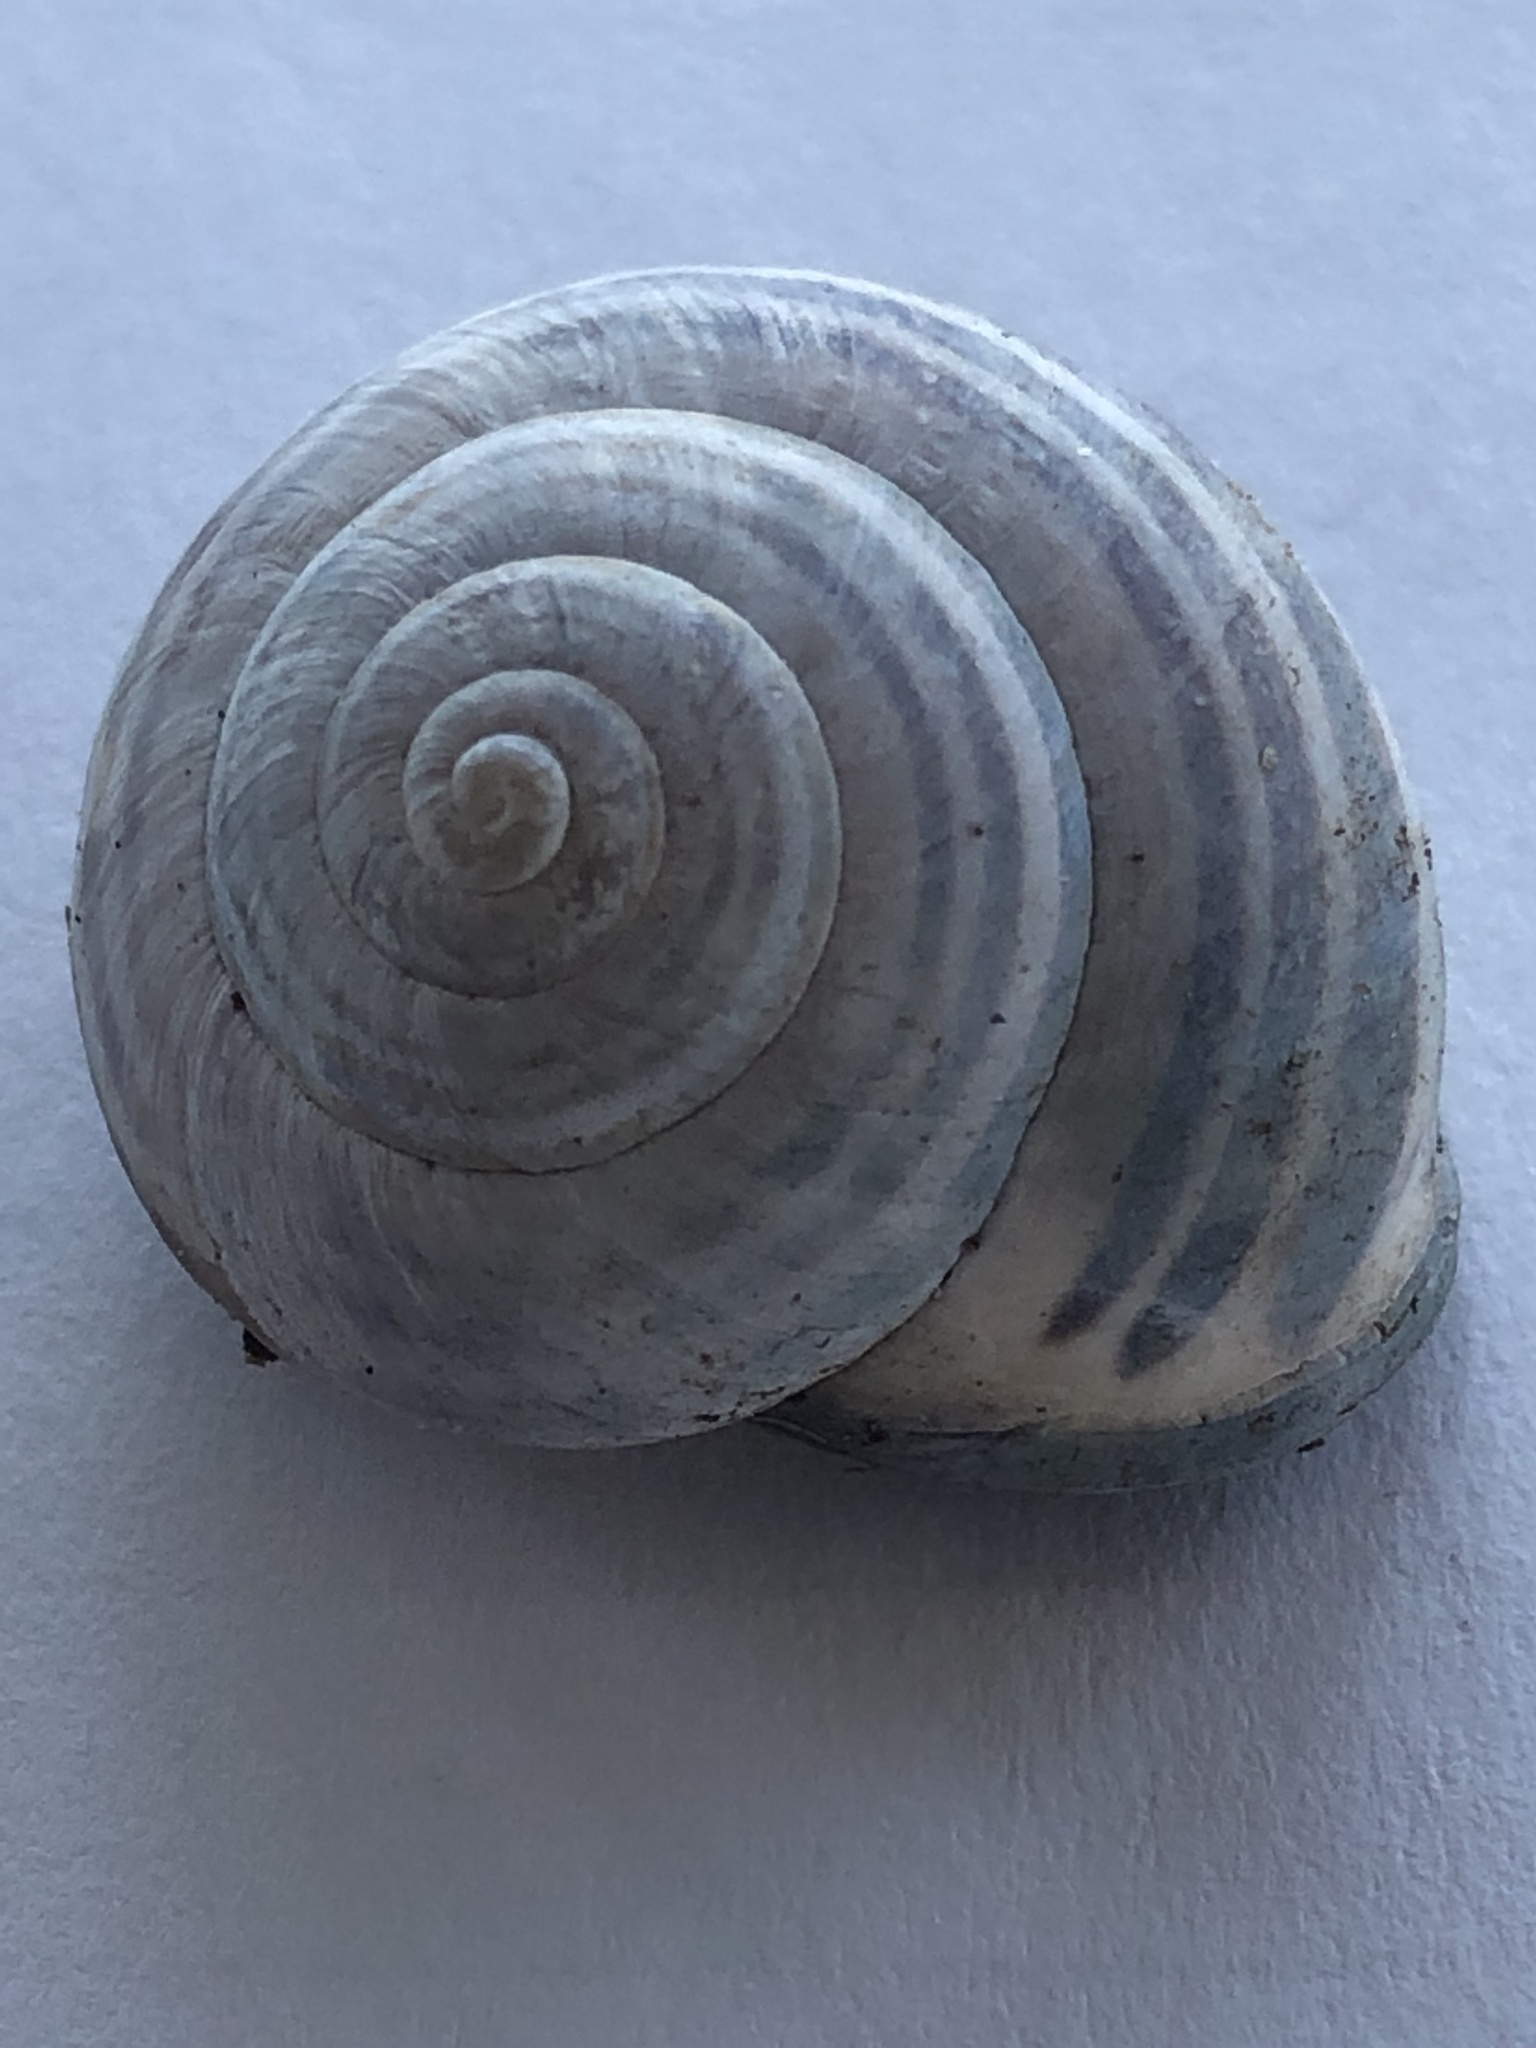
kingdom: Animalia
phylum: Mollusca
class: Gastropoda
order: Stylommatophora
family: Helicidae
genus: Cepaea
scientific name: Cepaea nemoralis
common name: Grovesnail
